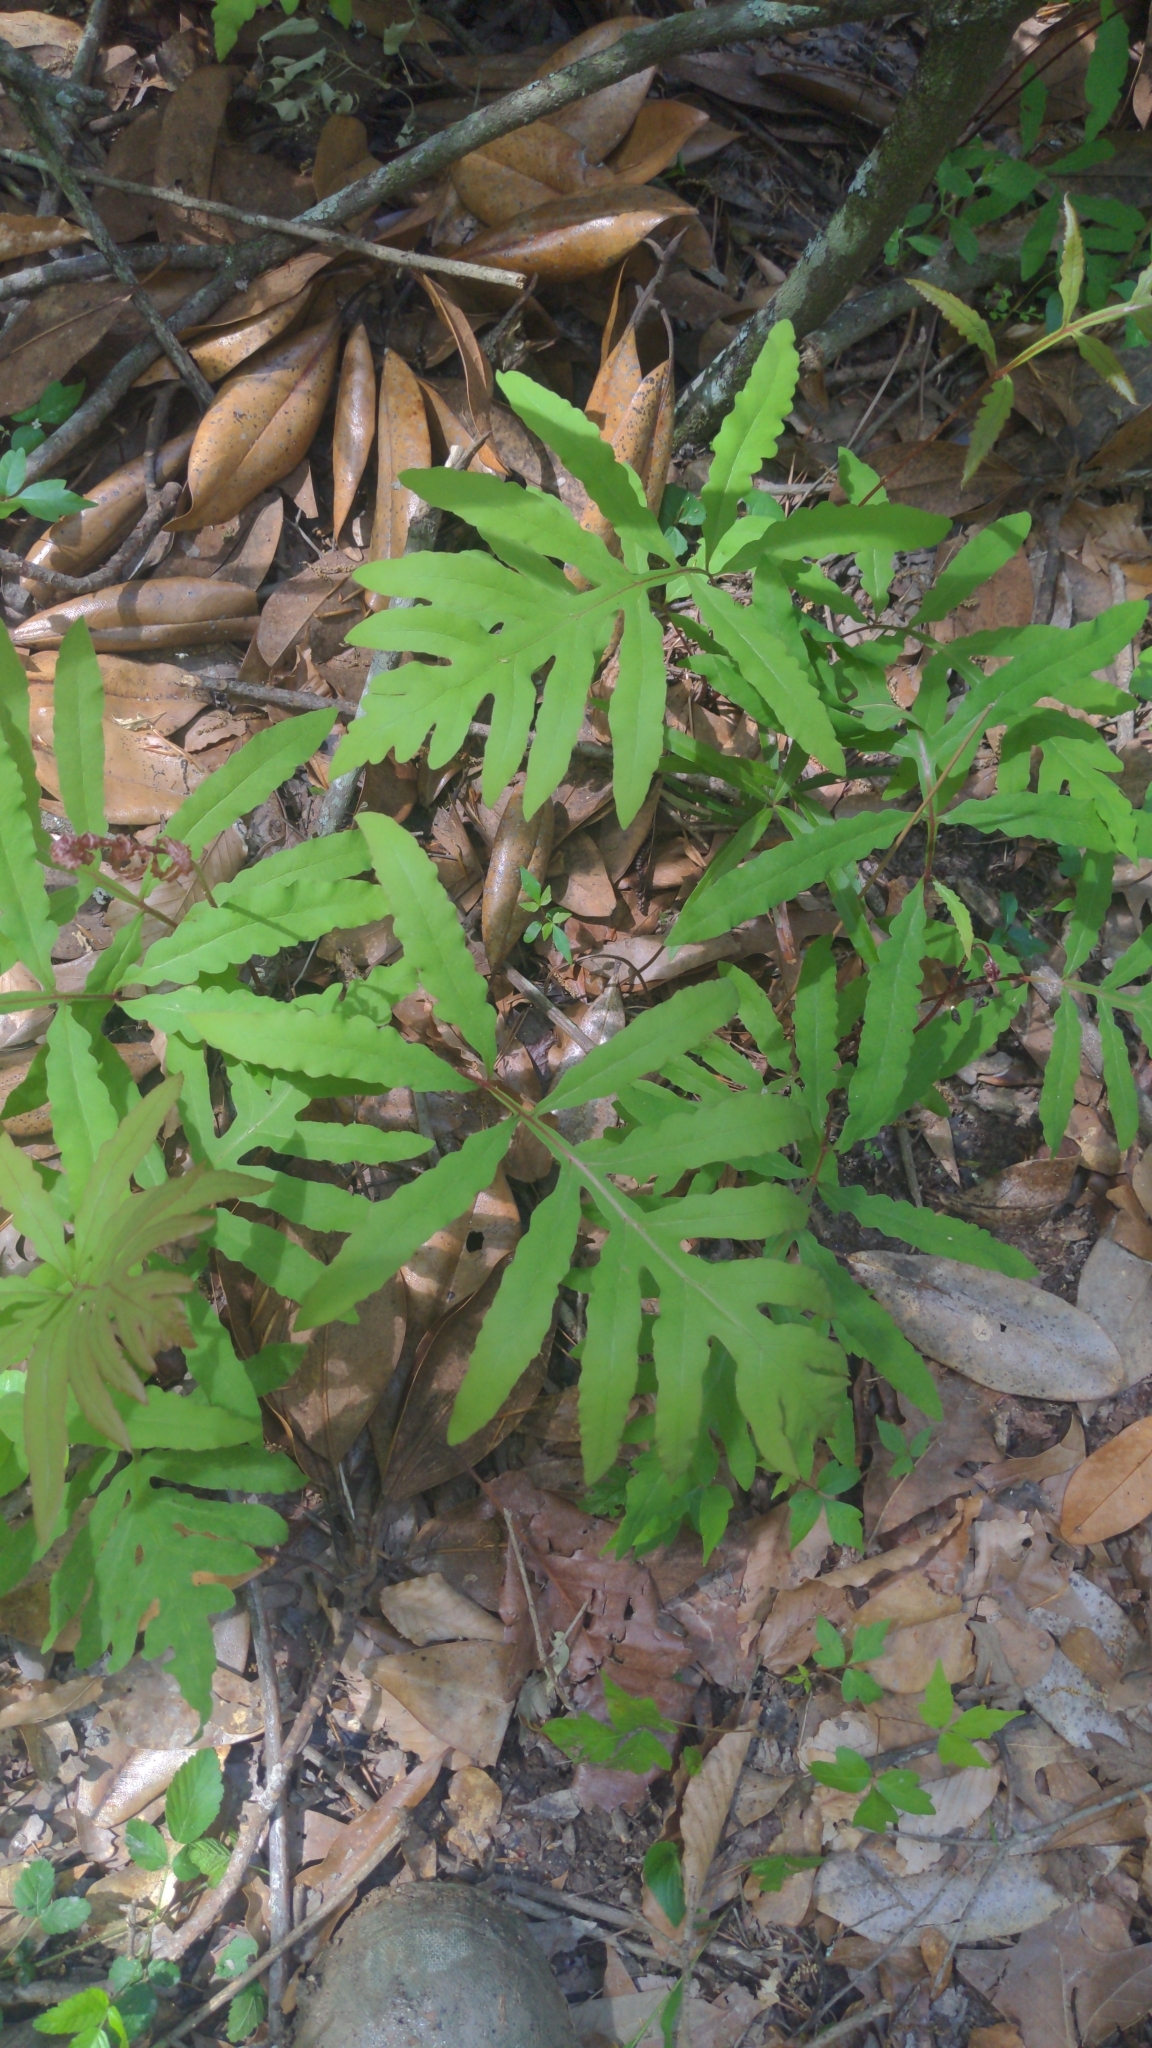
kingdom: Plantae
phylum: Tracheophyta
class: Polypodiopsida
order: Polypodiales
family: Onocleaceae
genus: Onoclea
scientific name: Onoclea sensibilis
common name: Sensitive fern
